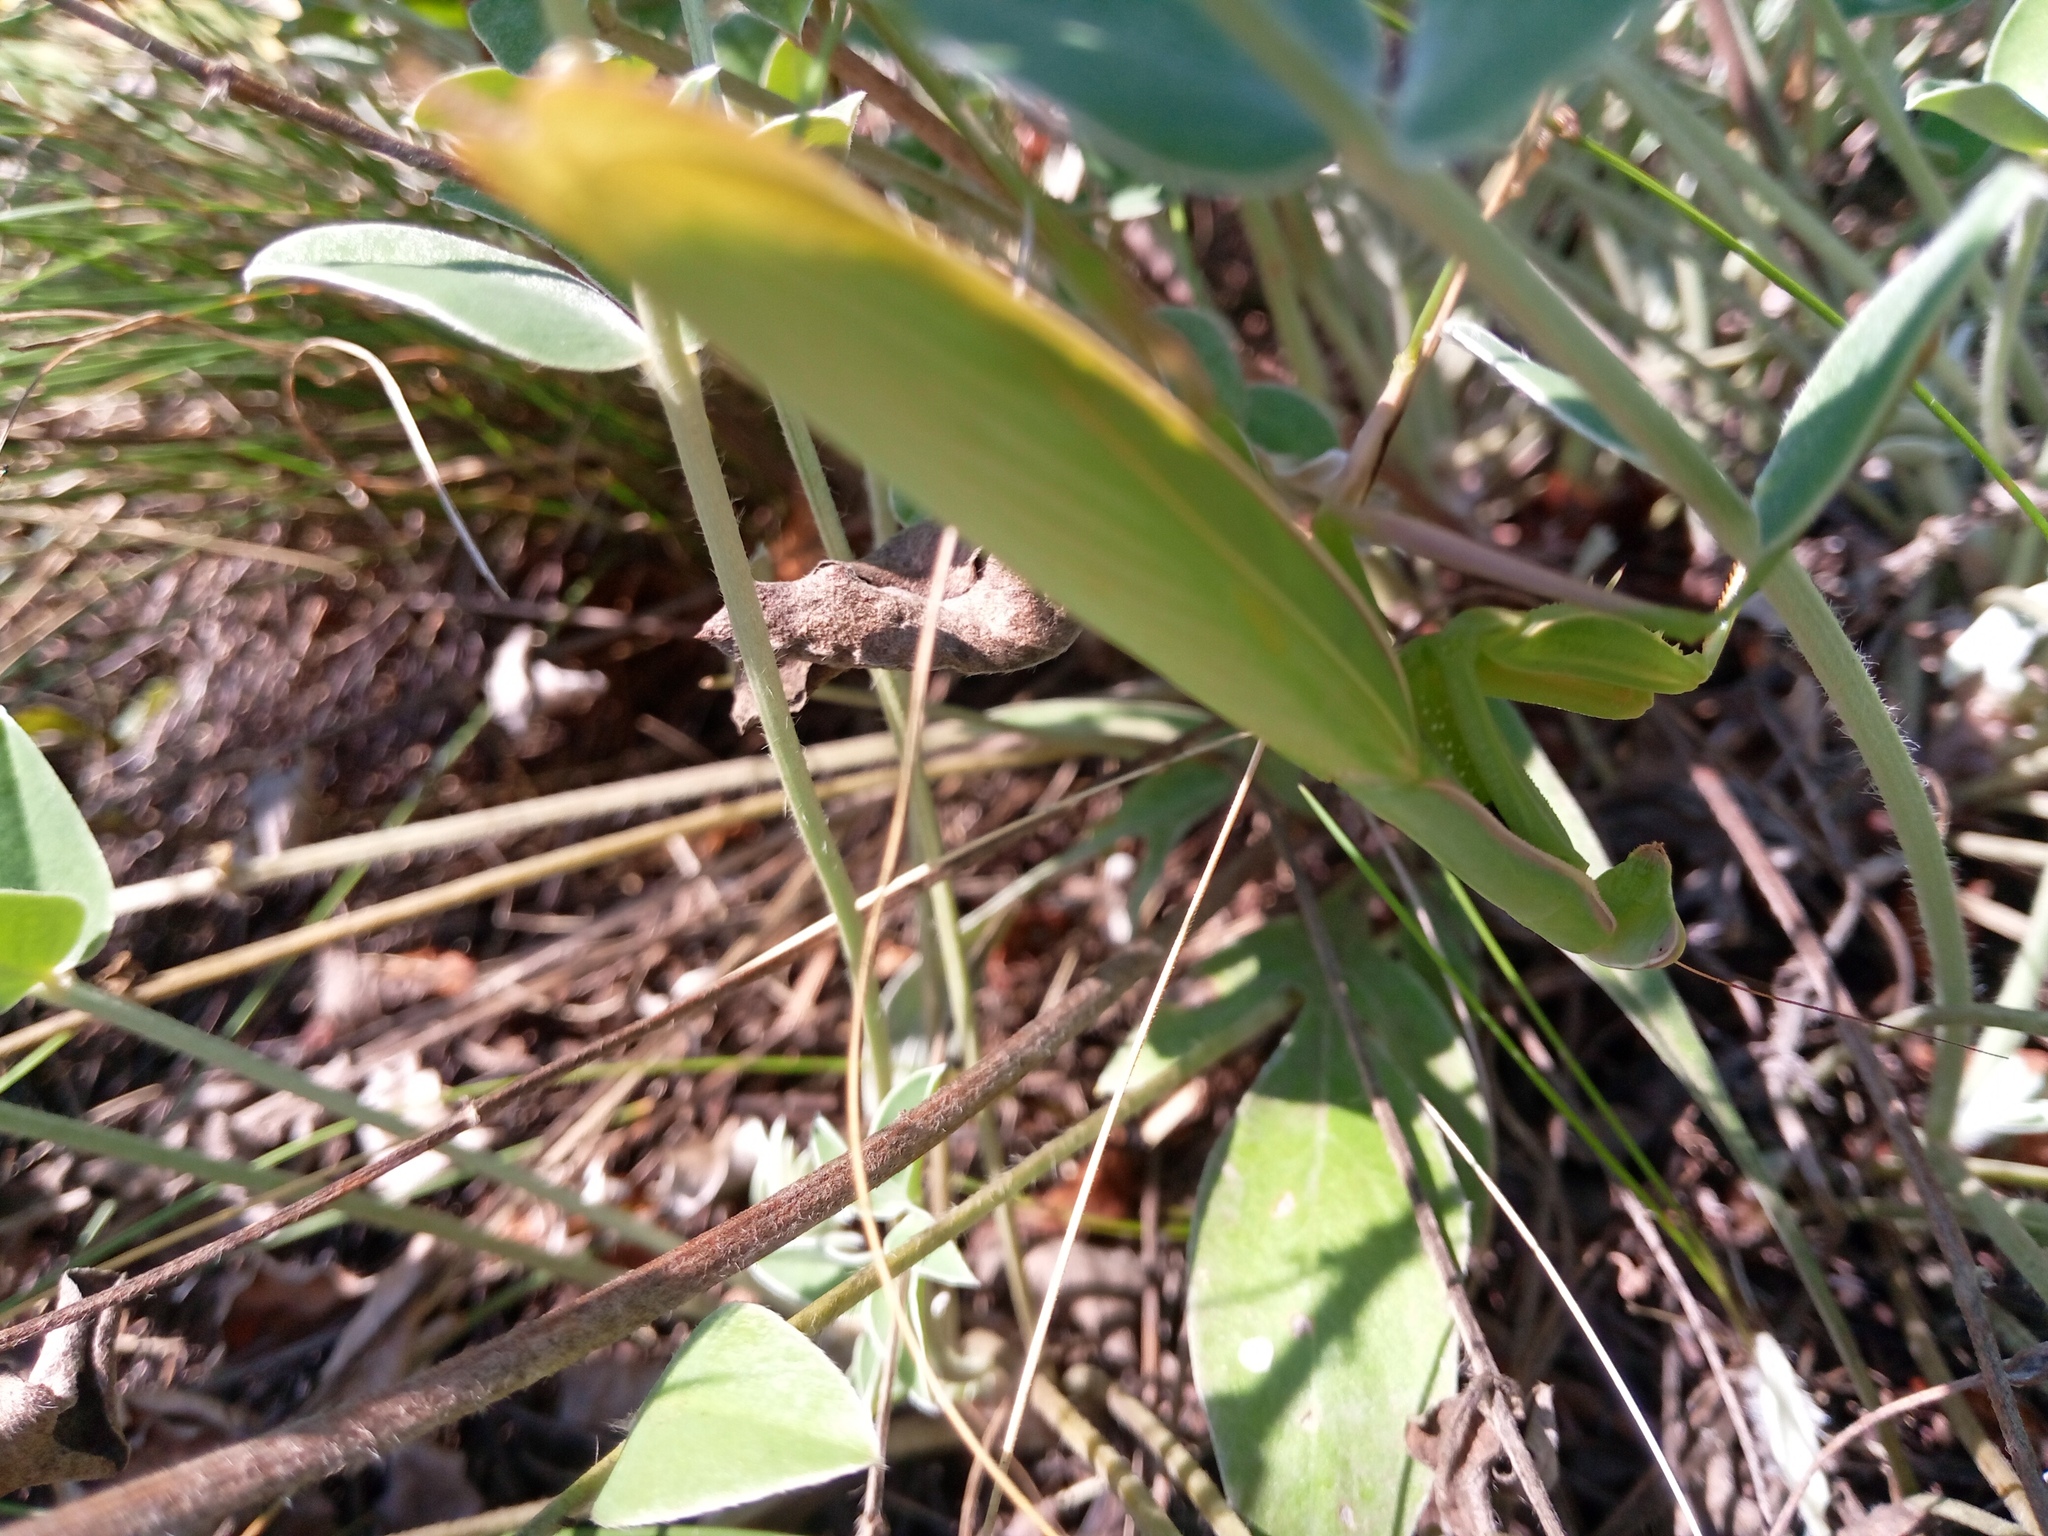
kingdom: Animalia
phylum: Arthropoda
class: Insecta
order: Mantodea
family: Mantidae
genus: Mantis
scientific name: Mantis religiosa
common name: Praying mantis
